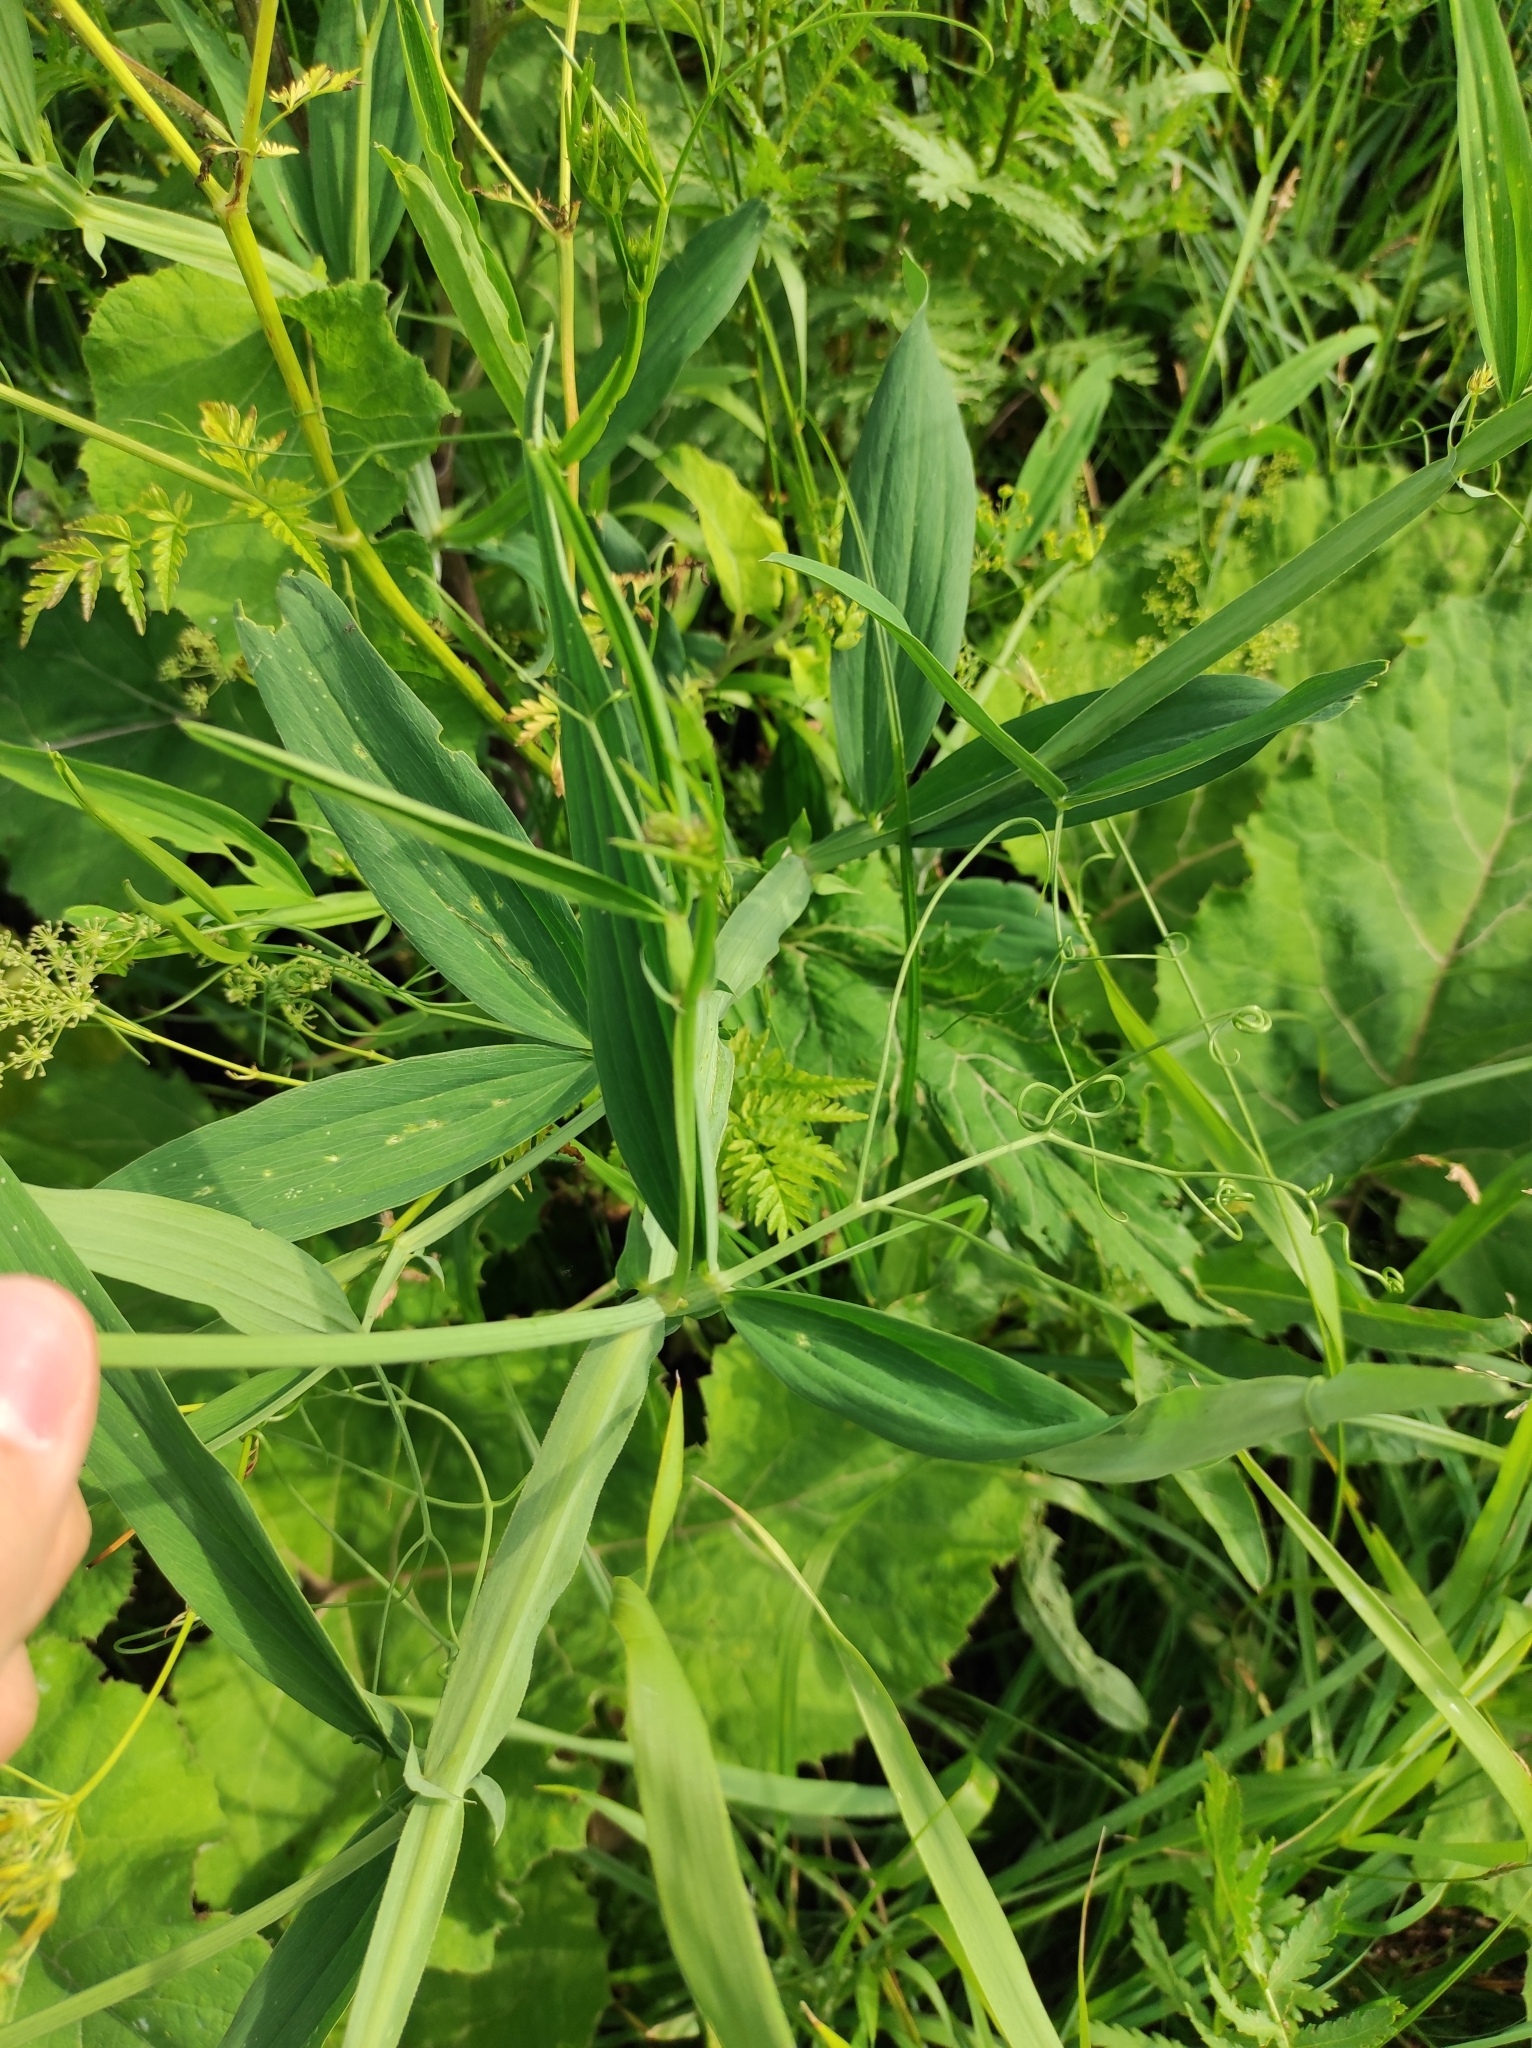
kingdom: Plantae
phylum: Tracheophyta
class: Magnoliopsida
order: Fabales
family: Fabaceae
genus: Lathyrus
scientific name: Lathyrus sylvestris
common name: Flat pea
